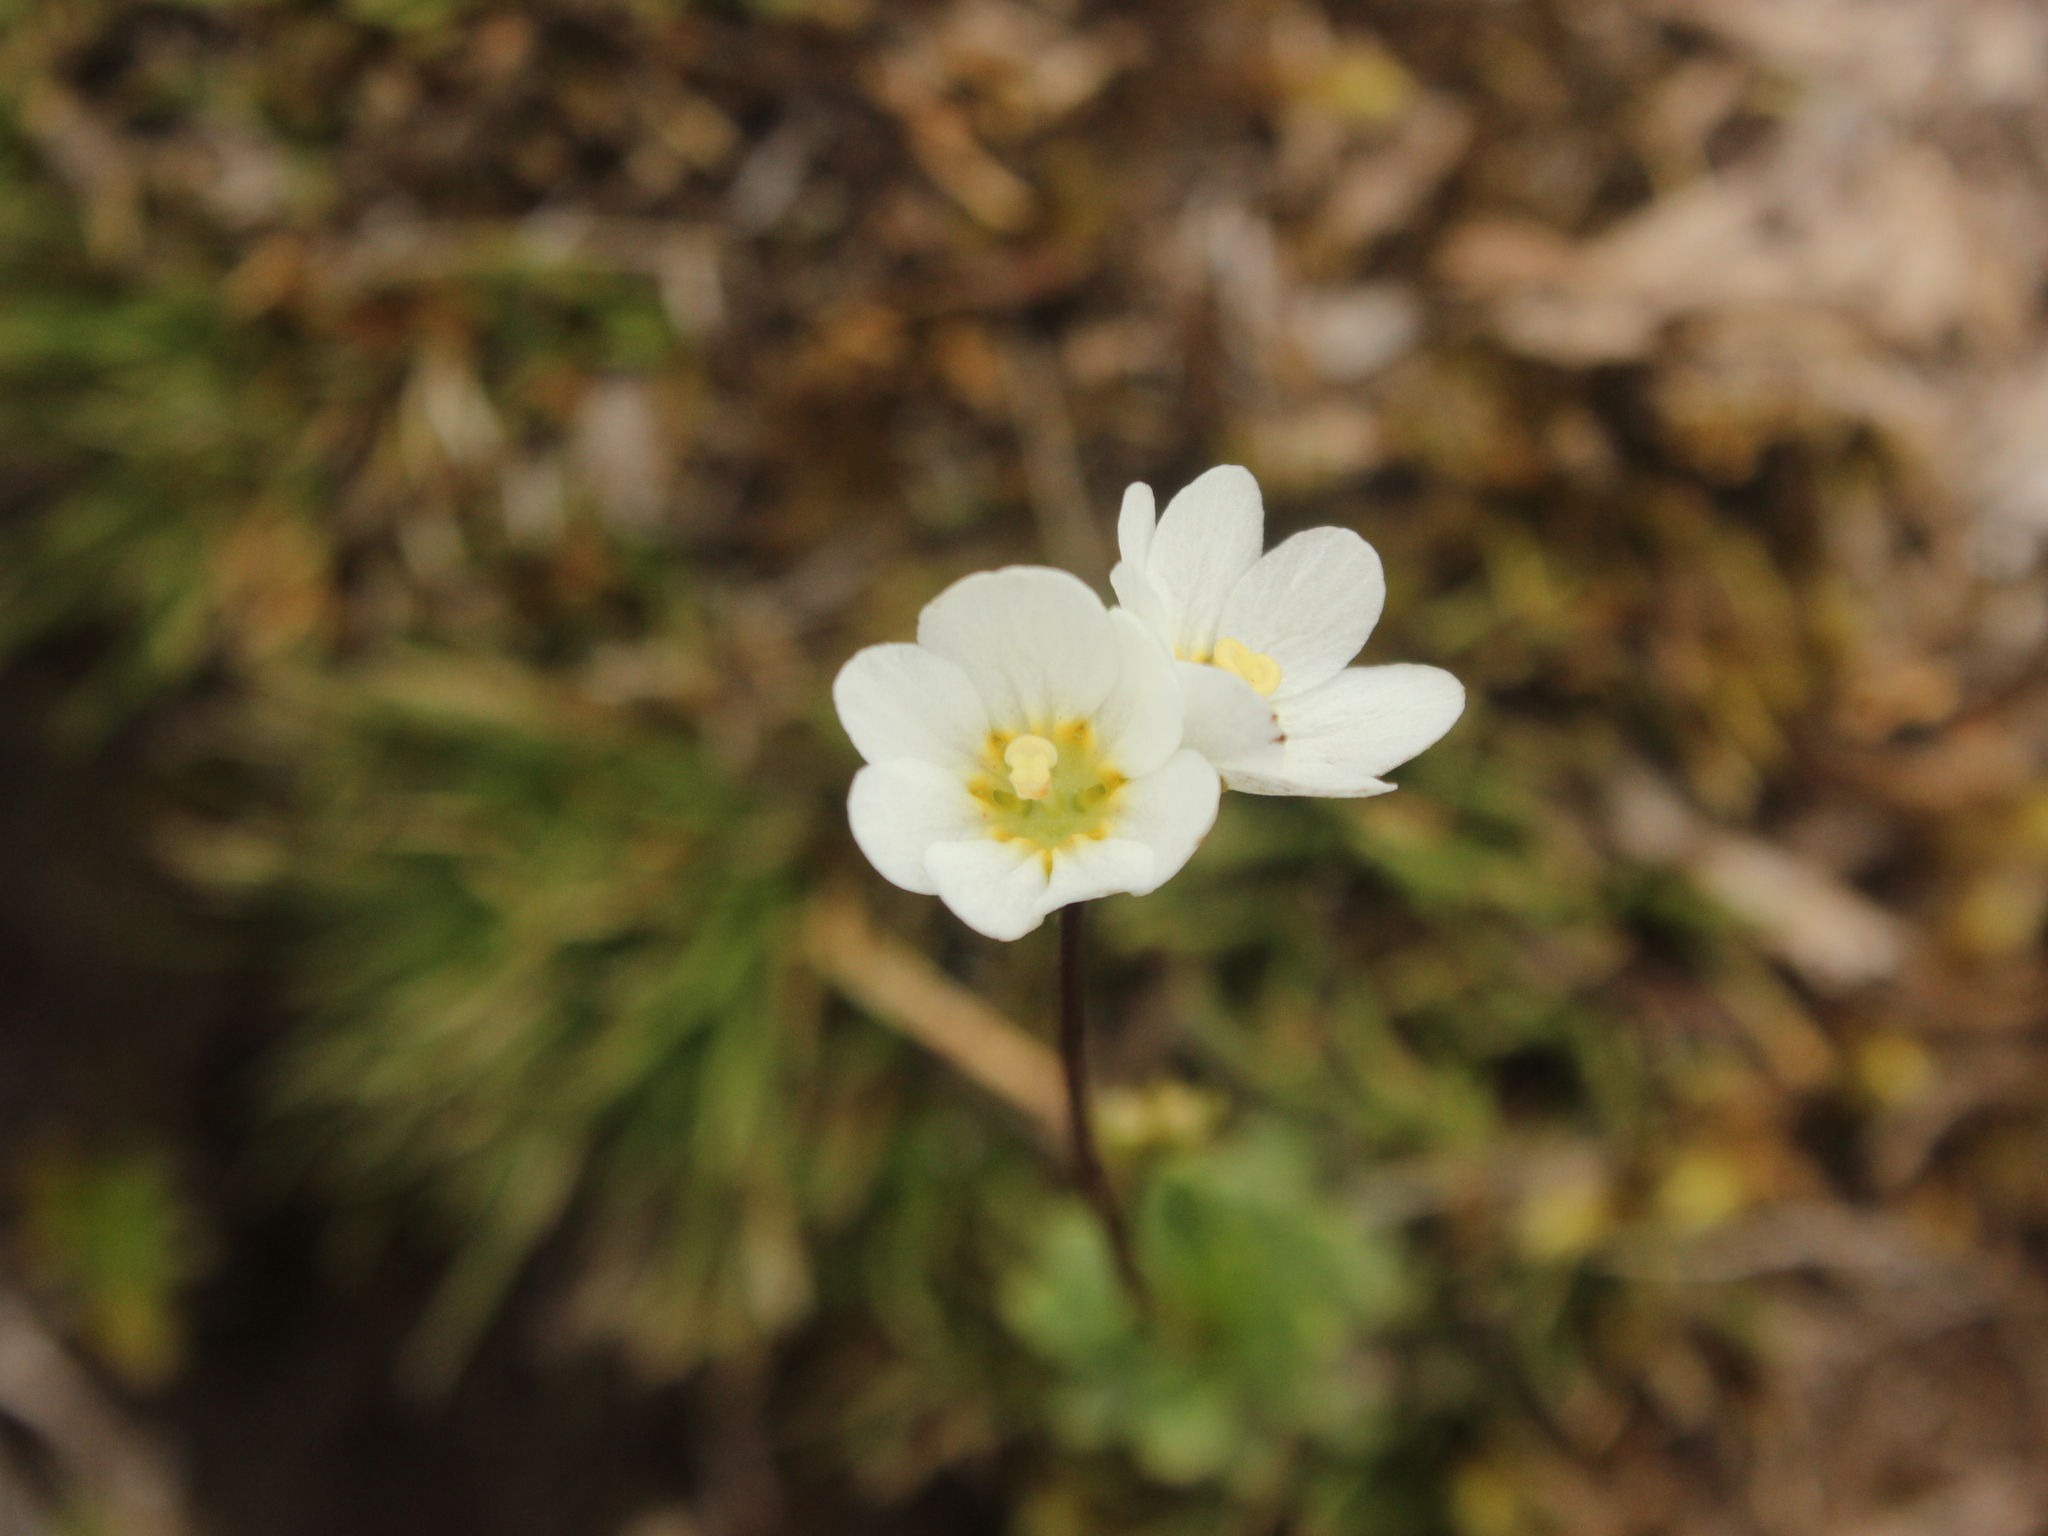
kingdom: Plantae
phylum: Tracheophyta
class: Magnoliopsida
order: Asterales
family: Stylidiaceae
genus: Forstera
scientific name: Forstera tenella
